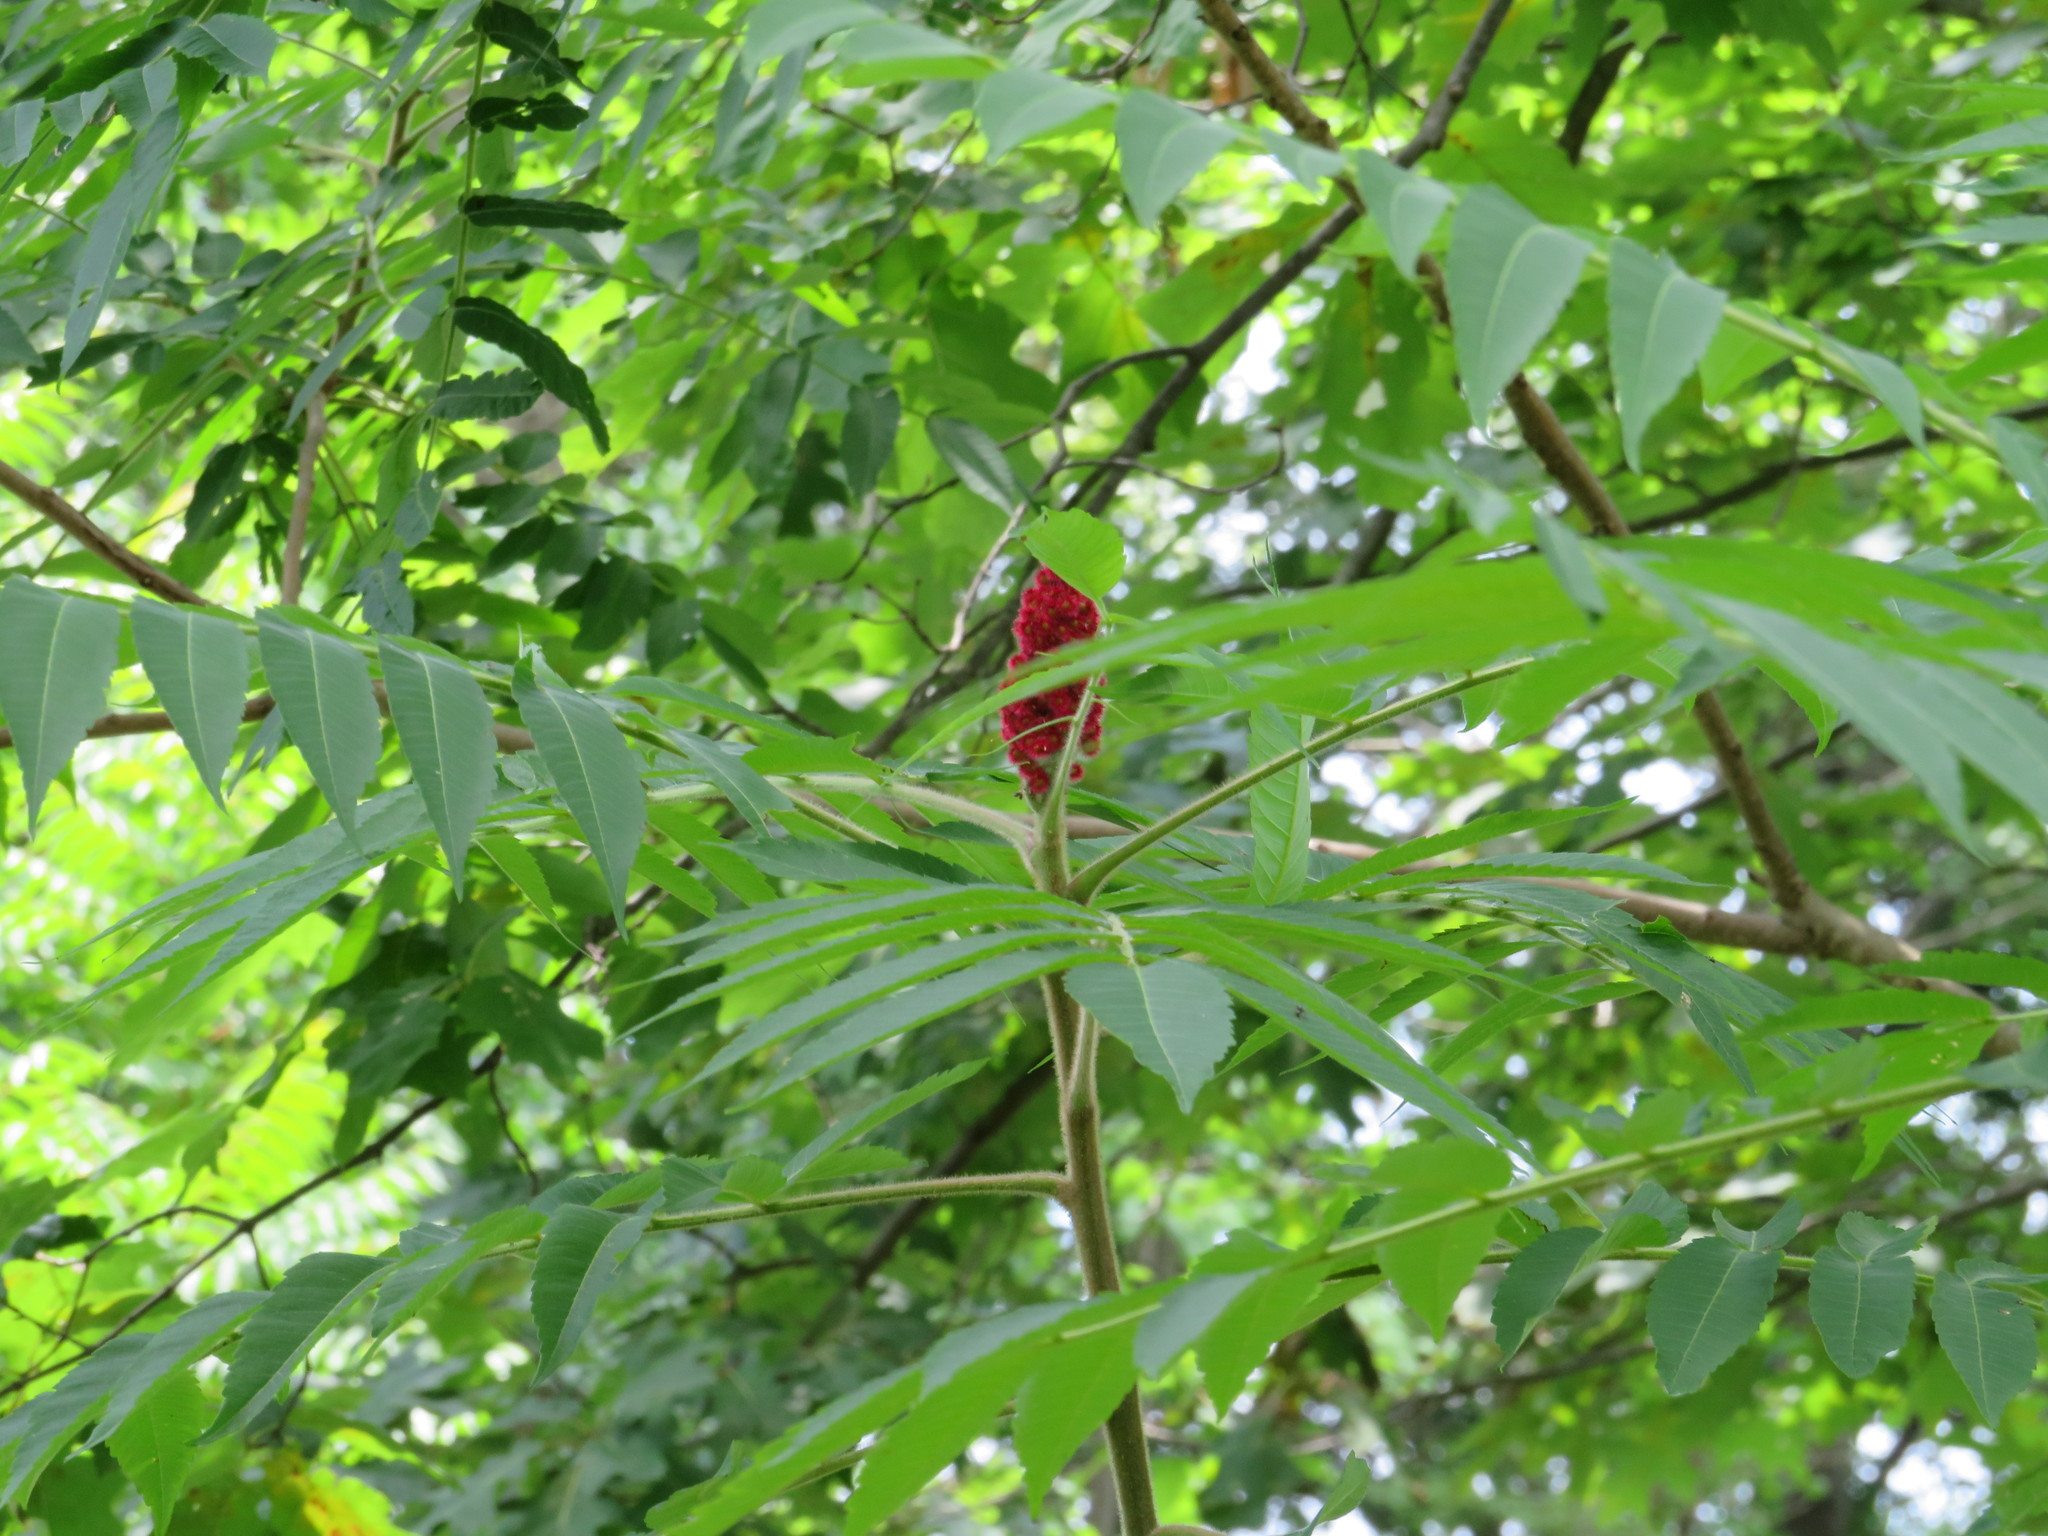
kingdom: Plantae
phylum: Tracheophyta
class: Magnoliopsida
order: Sapindales
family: Anacardiaceae
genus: Rhus
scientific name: Rhus typhina
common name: Staghorn sumac
